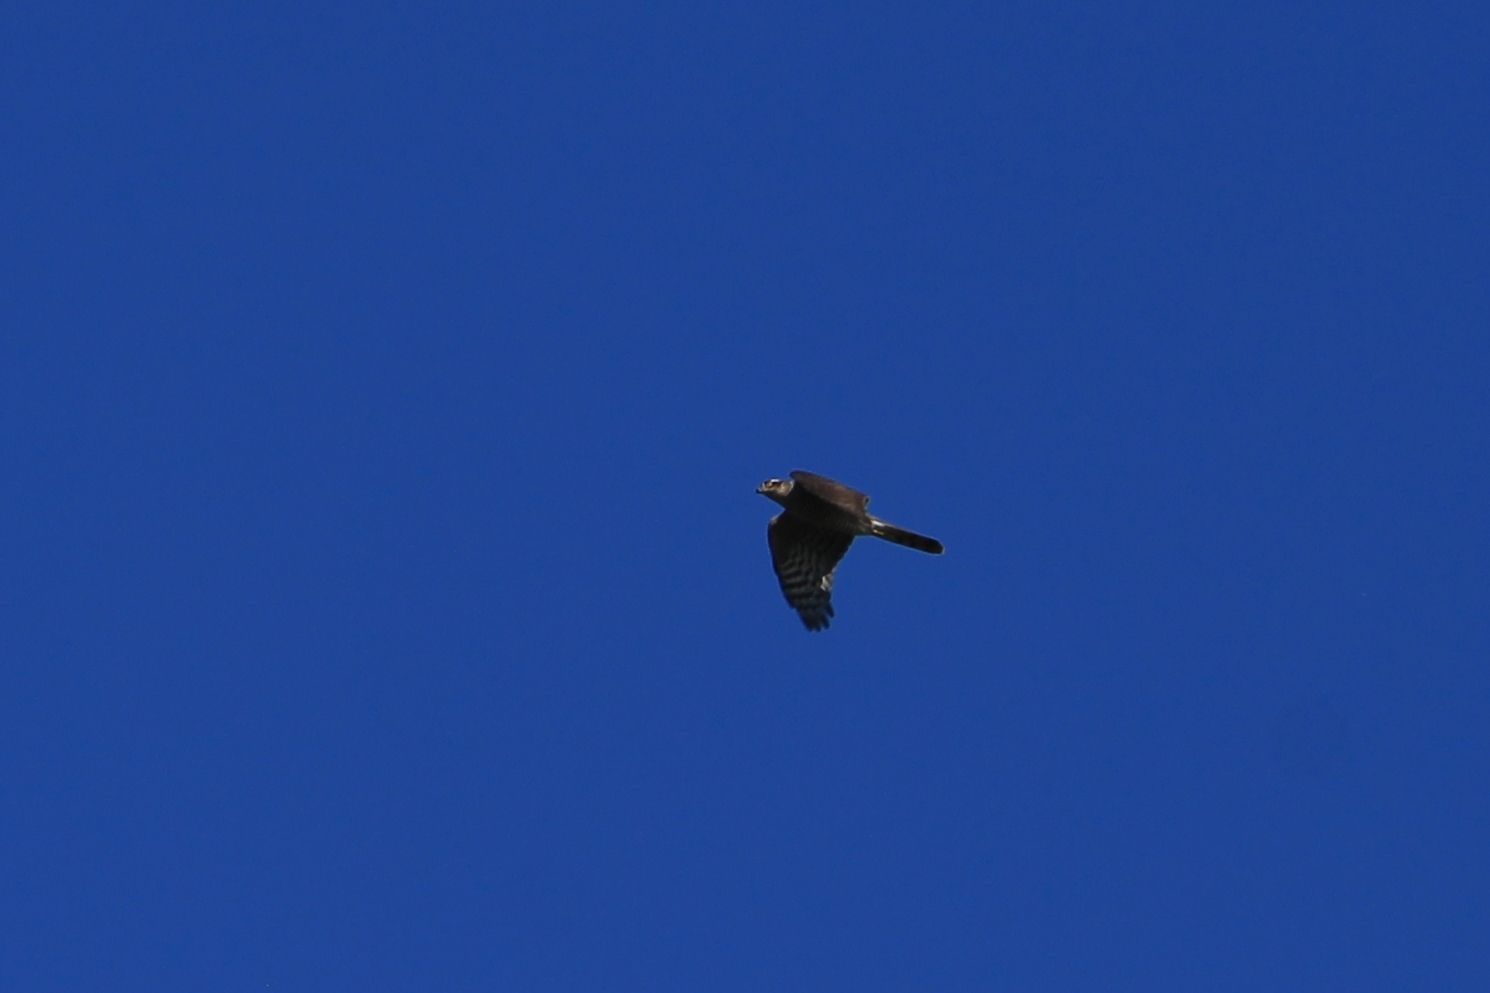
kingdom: Animalia
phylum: Chordata
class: Aves
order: Accipitriformes
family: Accipitridae
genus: Accipiter
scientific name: Accipiter gentilis
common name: Northern goshawk
